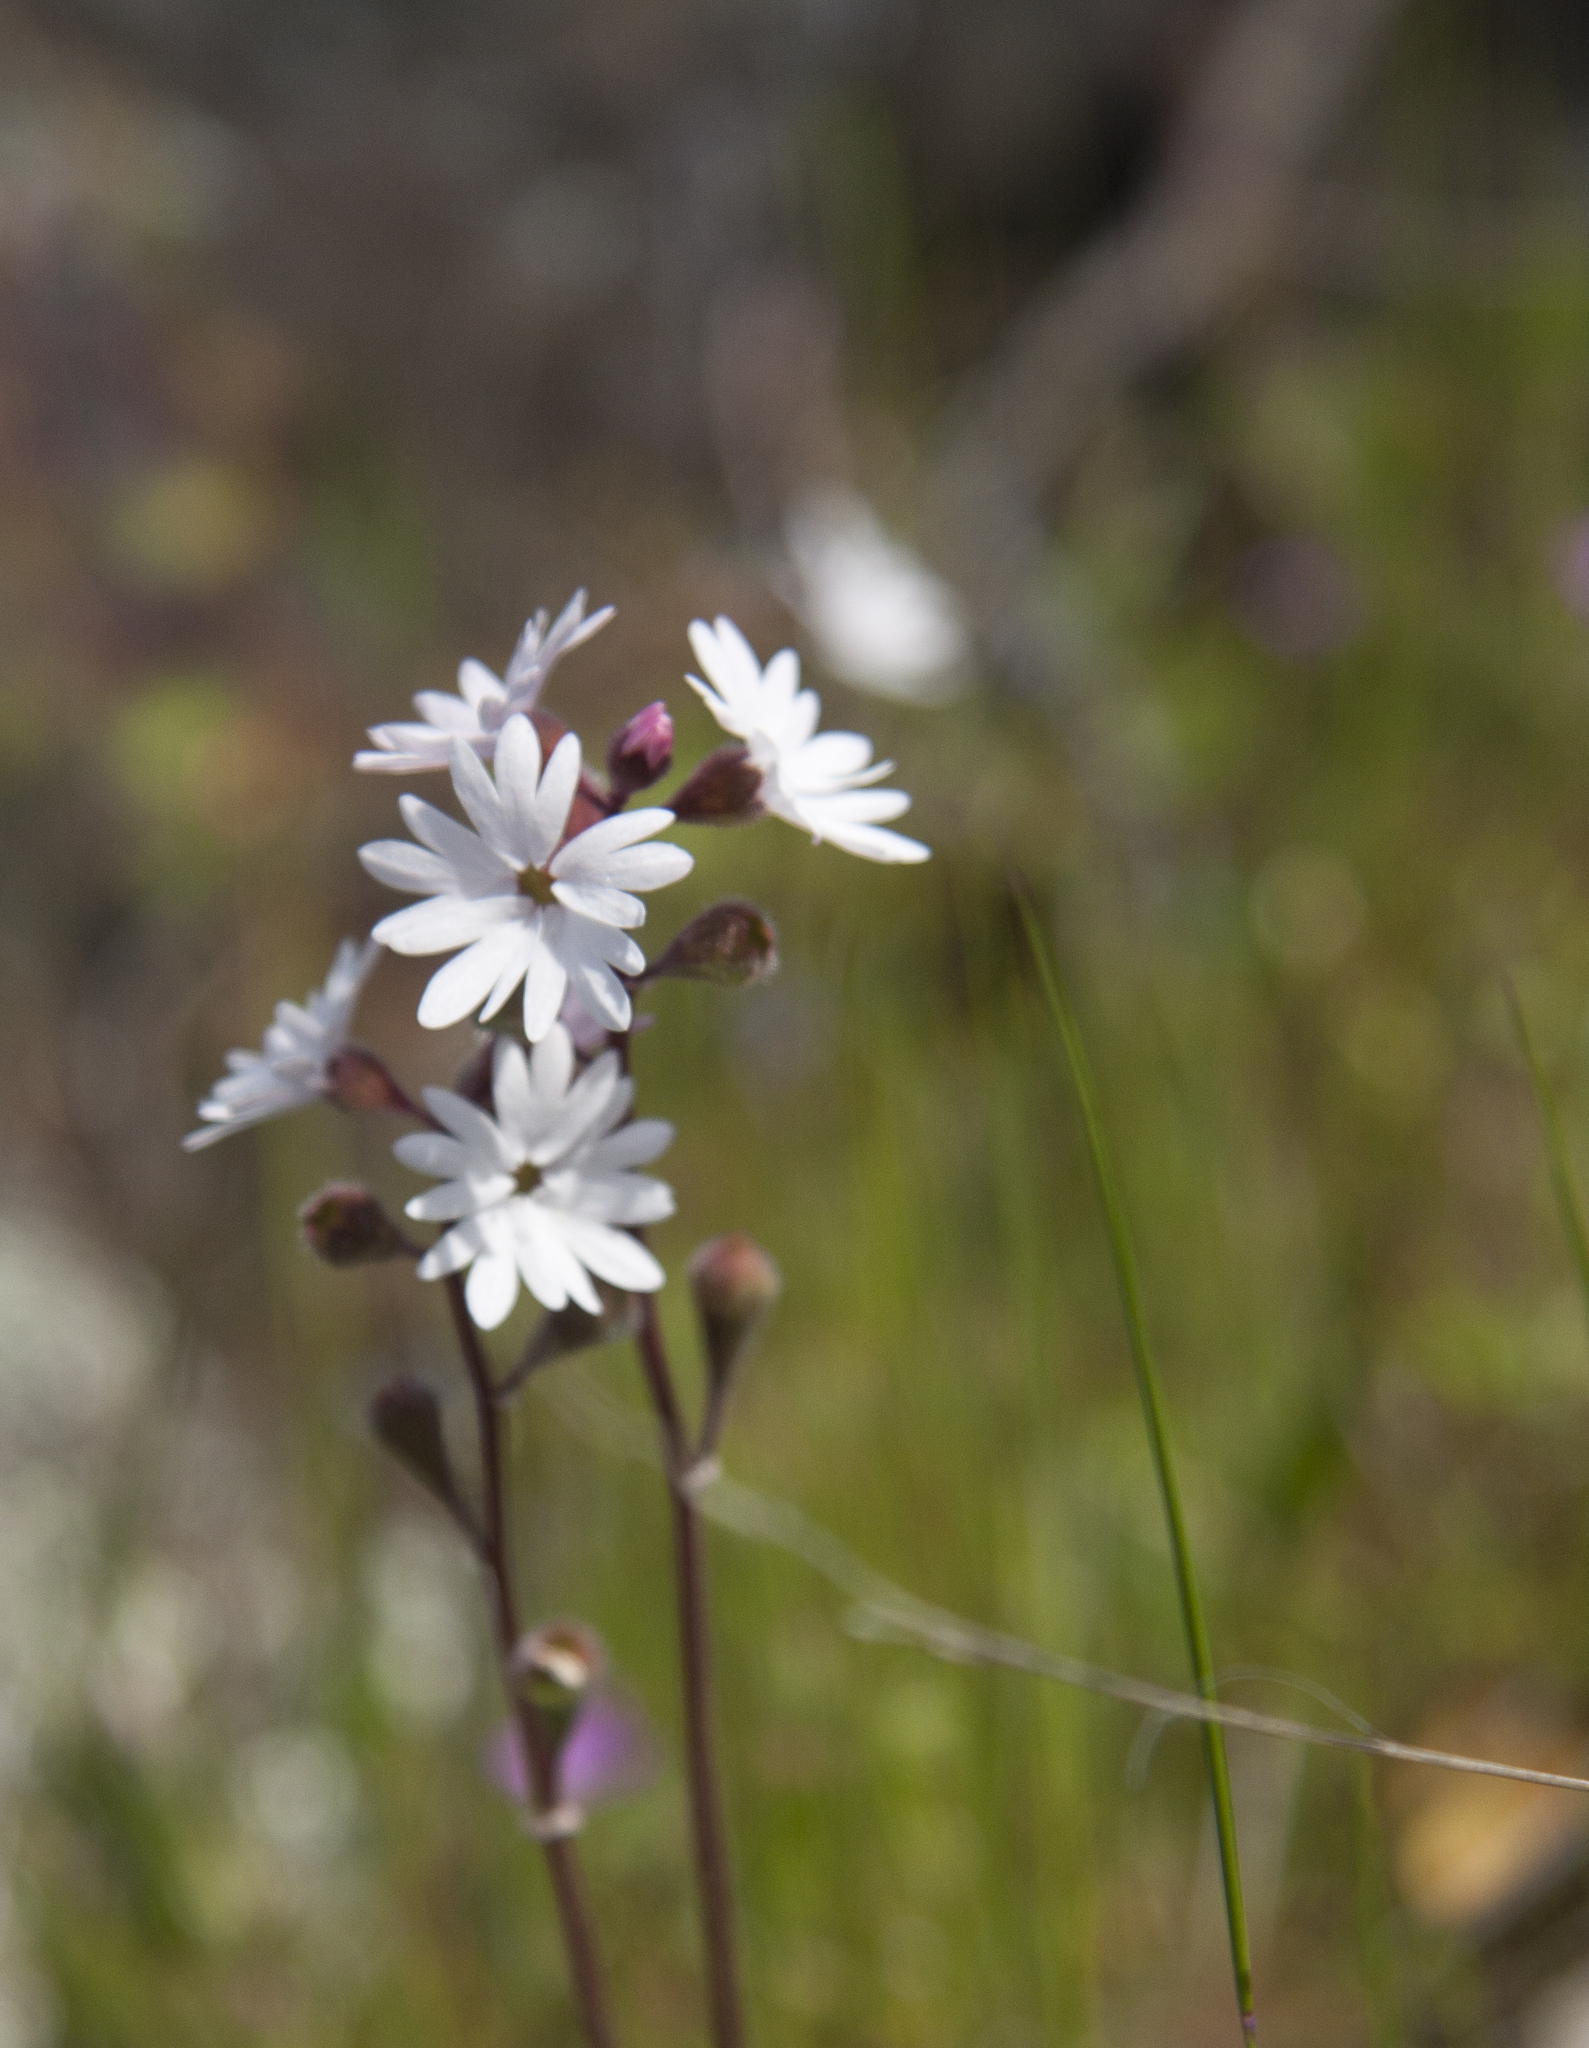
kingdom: Plantae
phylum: Tracheophyta
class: Magnoliopsida
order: Saxifragales
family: Saxifragaceae
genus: Lithophragma
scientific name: Lithophragma parviflorum
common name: Small-flowered fringe-cup
